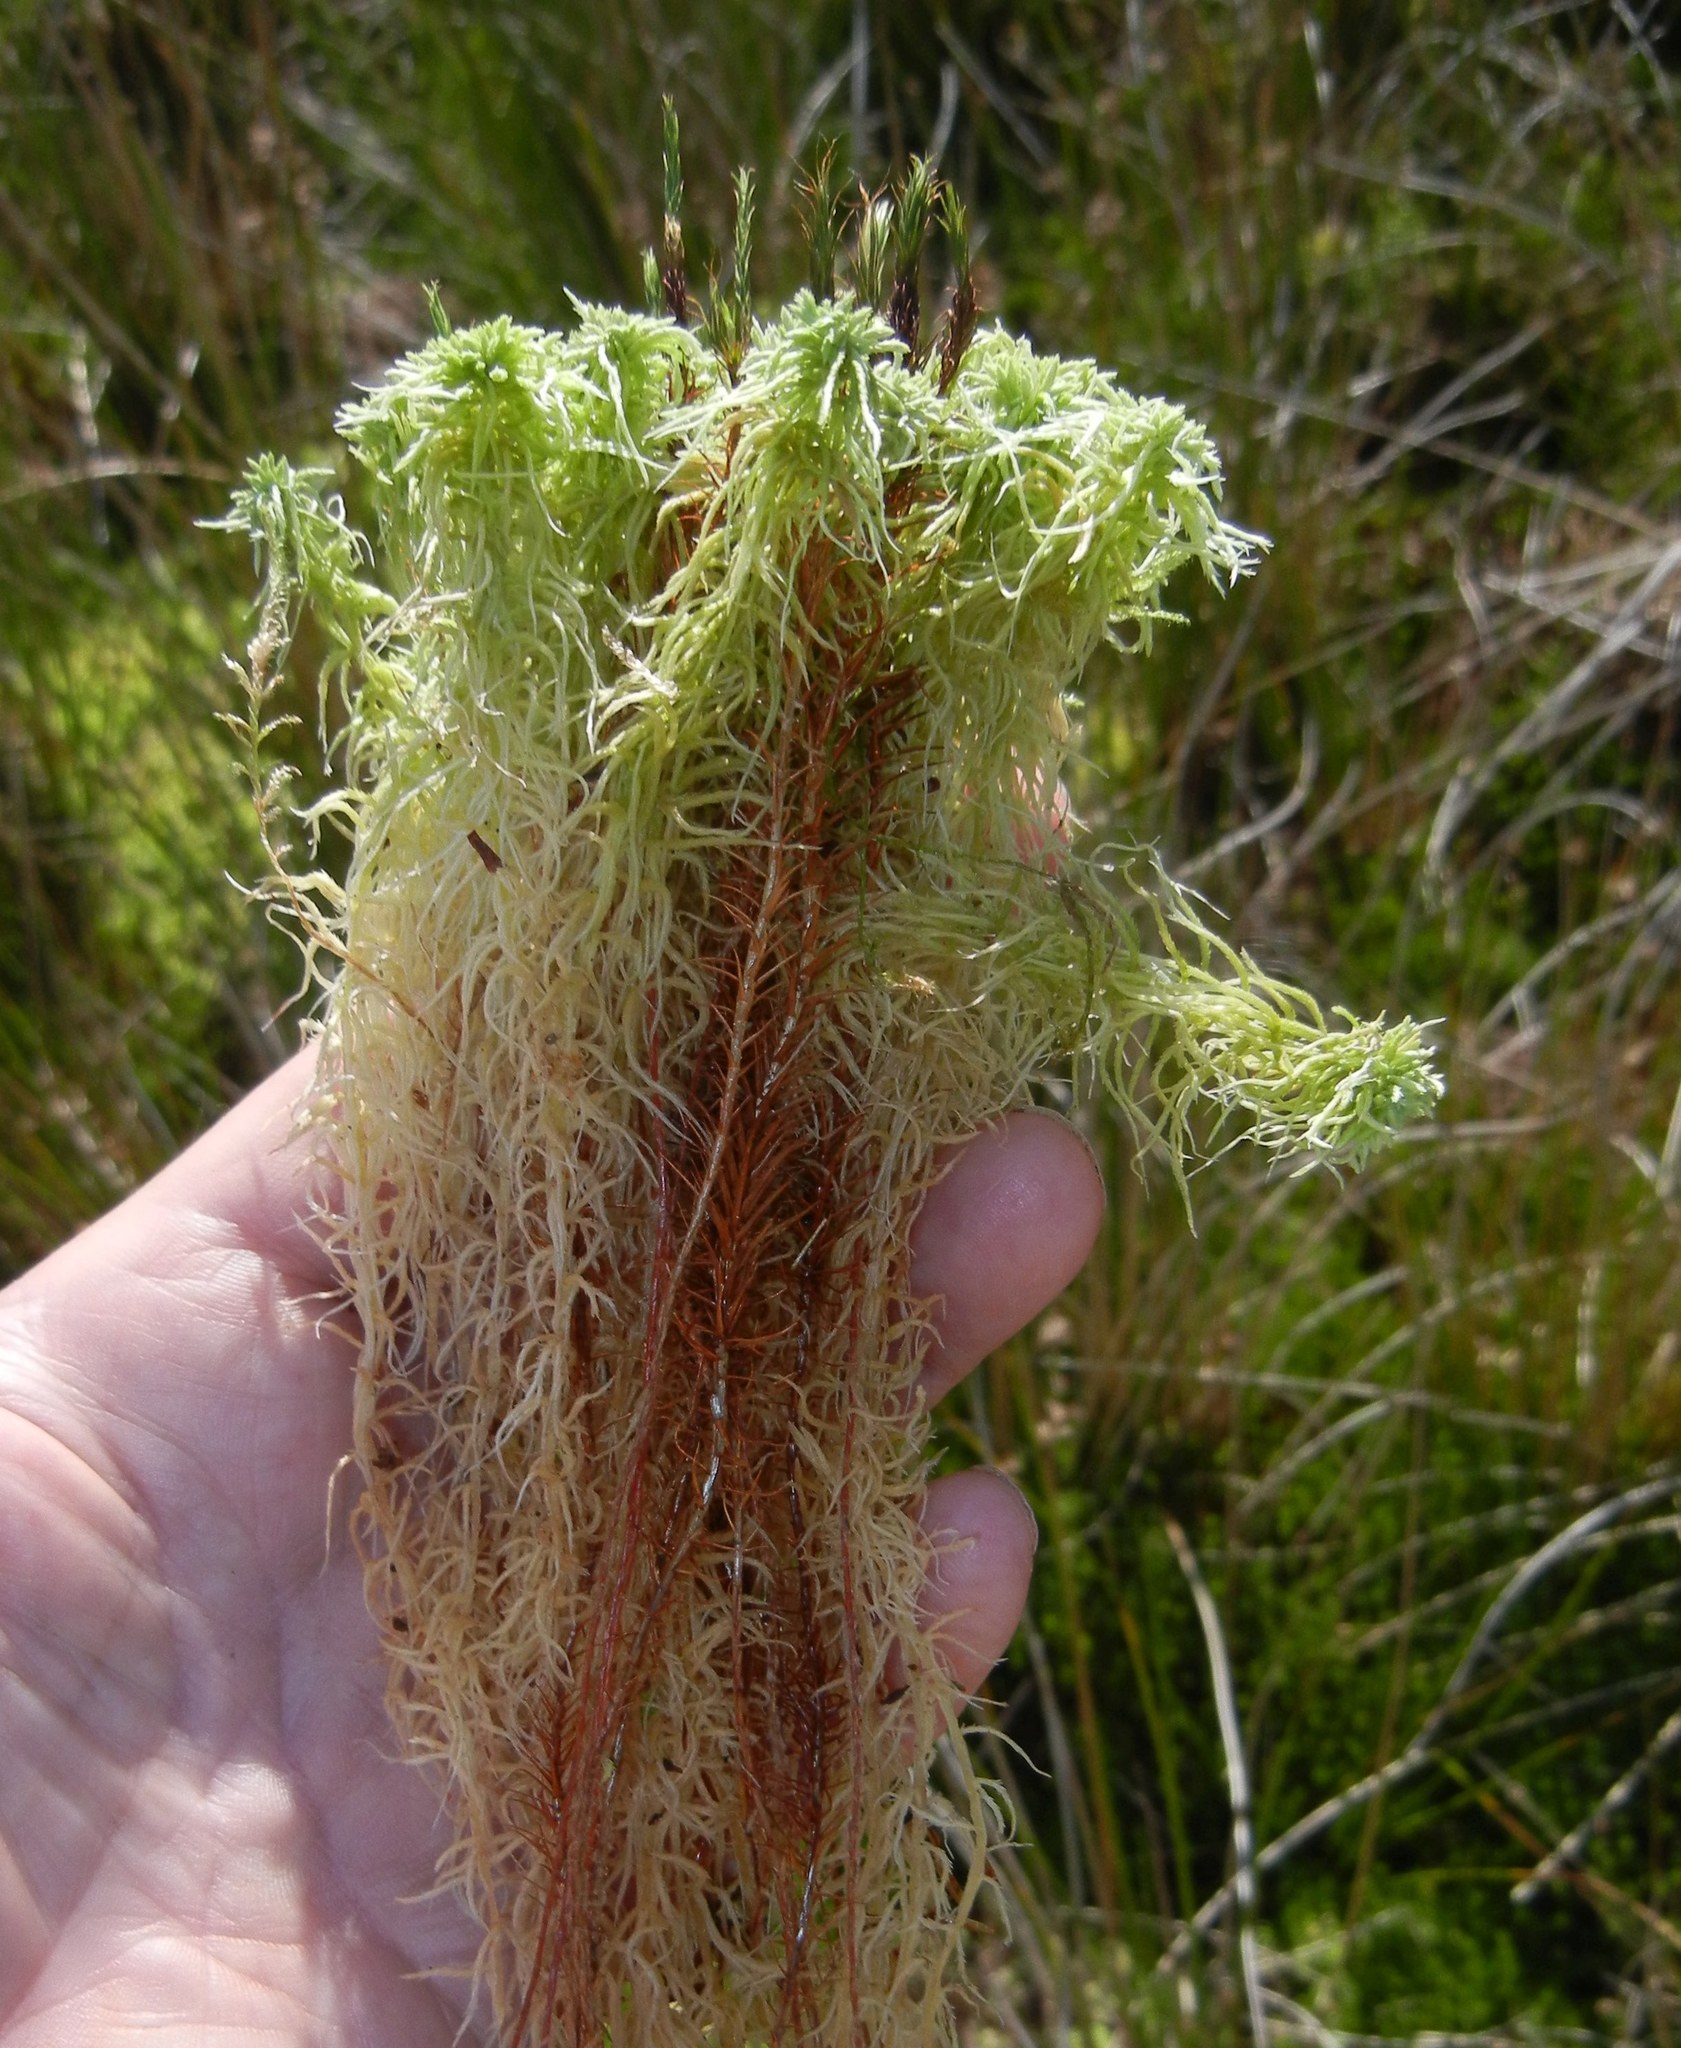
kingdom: Plantae
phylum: Bryophyta
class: Polytrichopsida
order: Polytrichales
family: Polytrichaceae
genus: Polytrichum
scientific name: Polytrichum commune
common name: Common haircap
